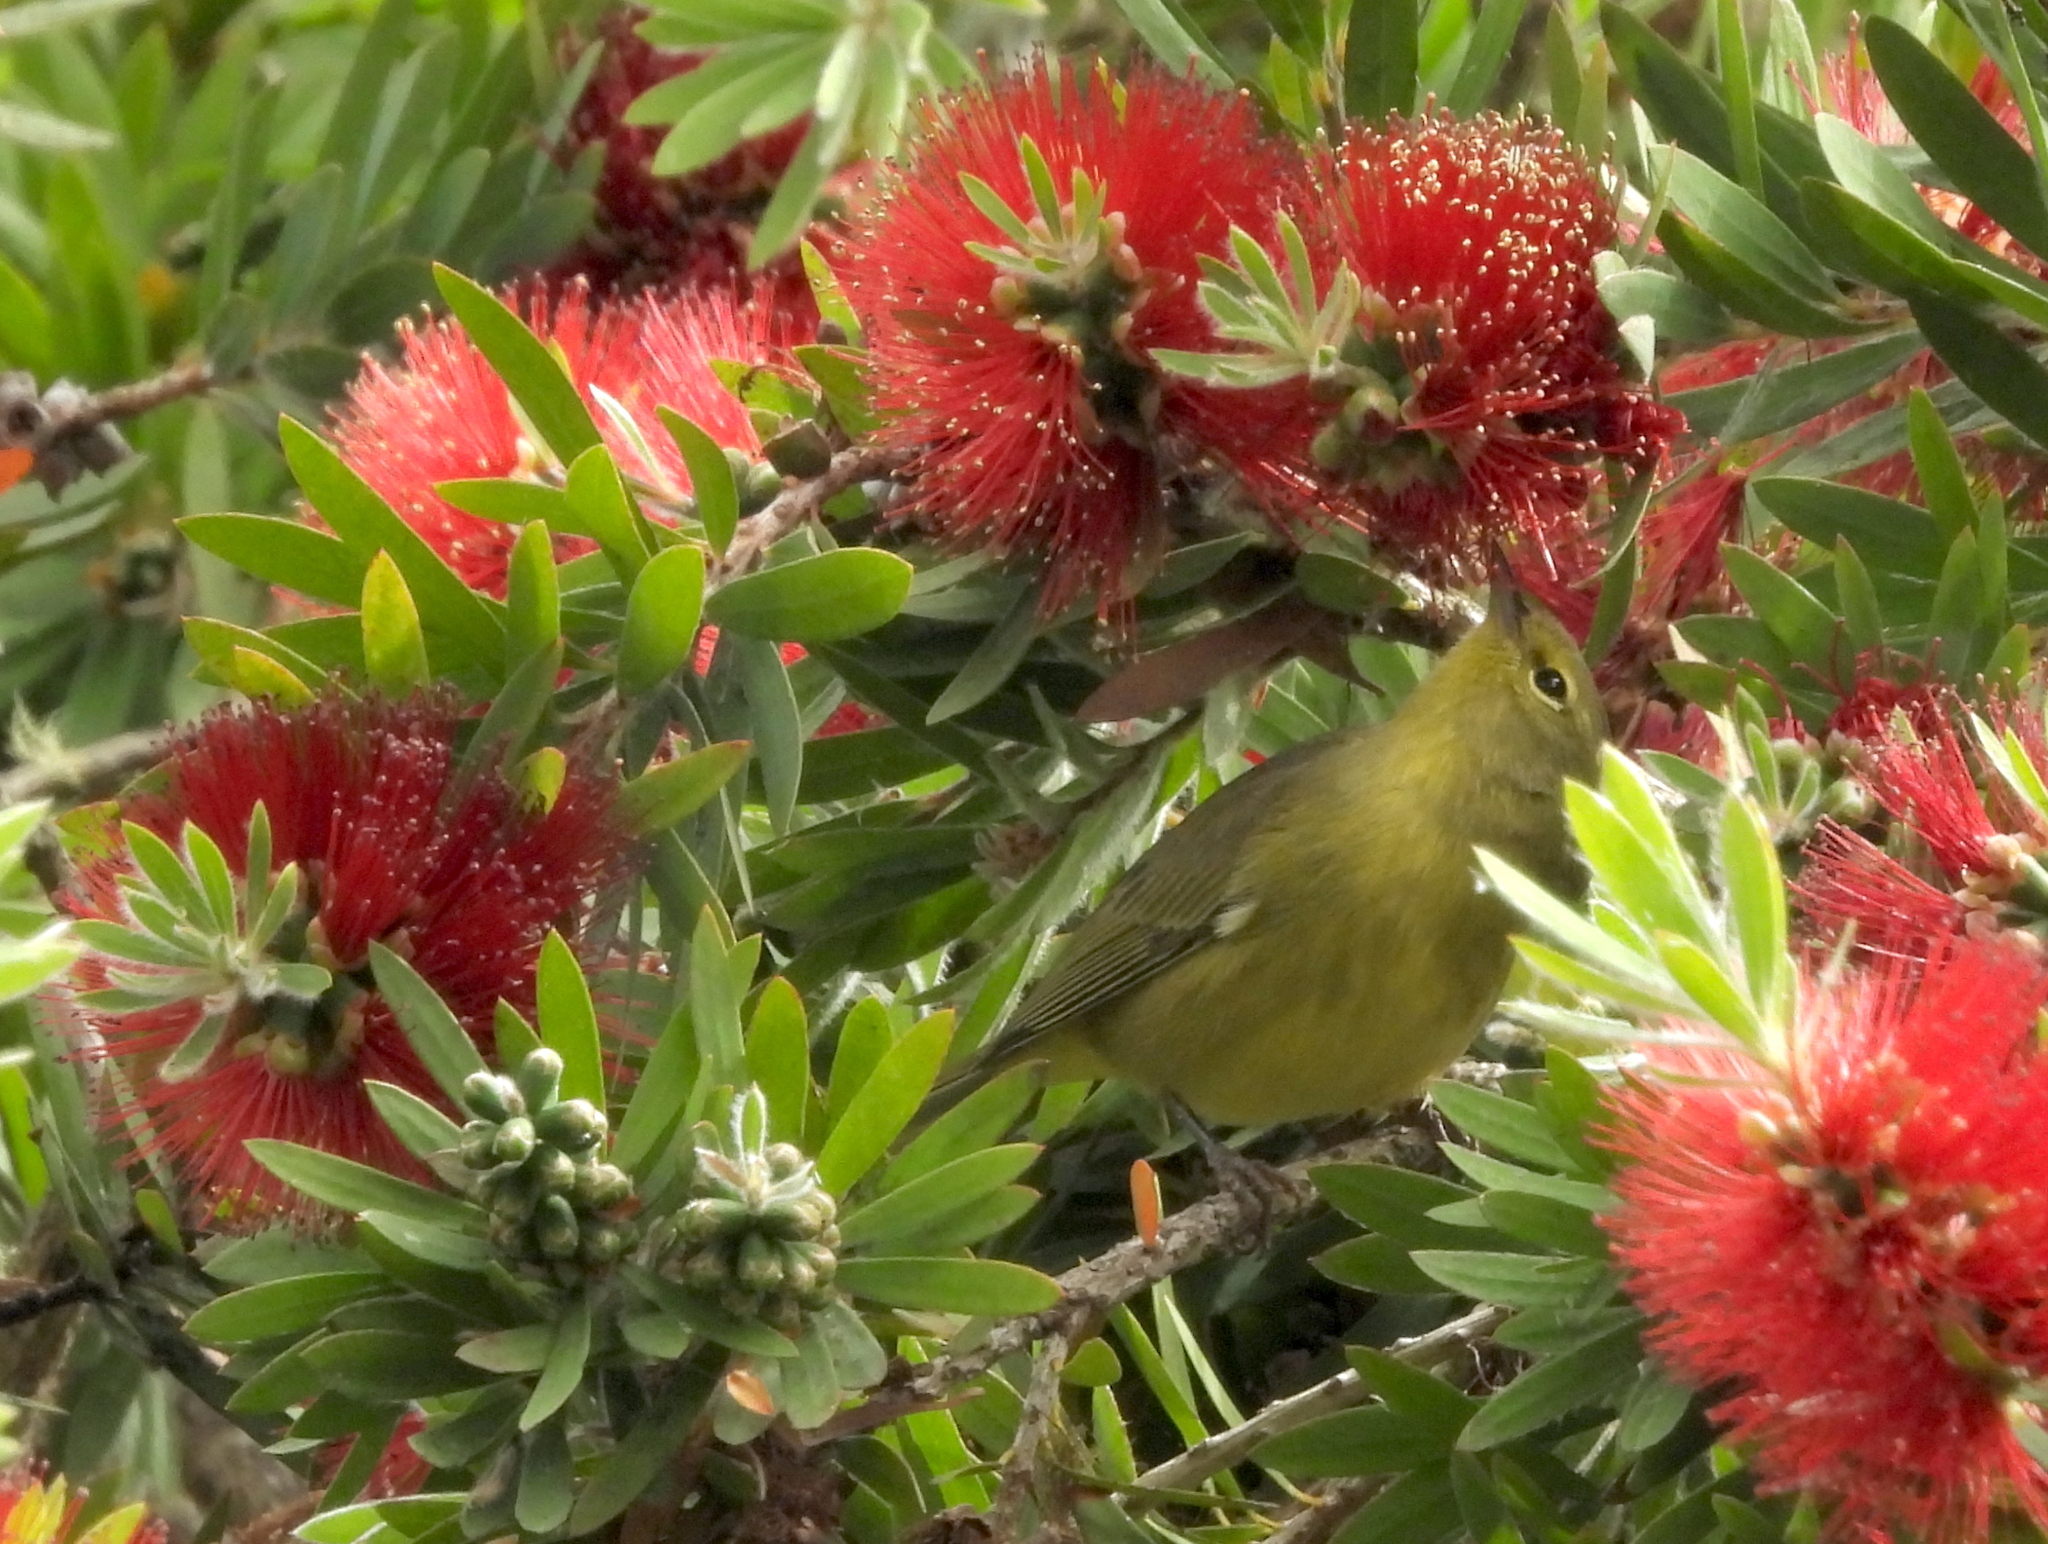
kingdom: Animalia
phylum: Chordata
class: Aves
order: Passeriformes
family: Parulidae
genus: Leiothlypis
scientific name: Leiothlypis celata
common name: Orange-crowned warbler
